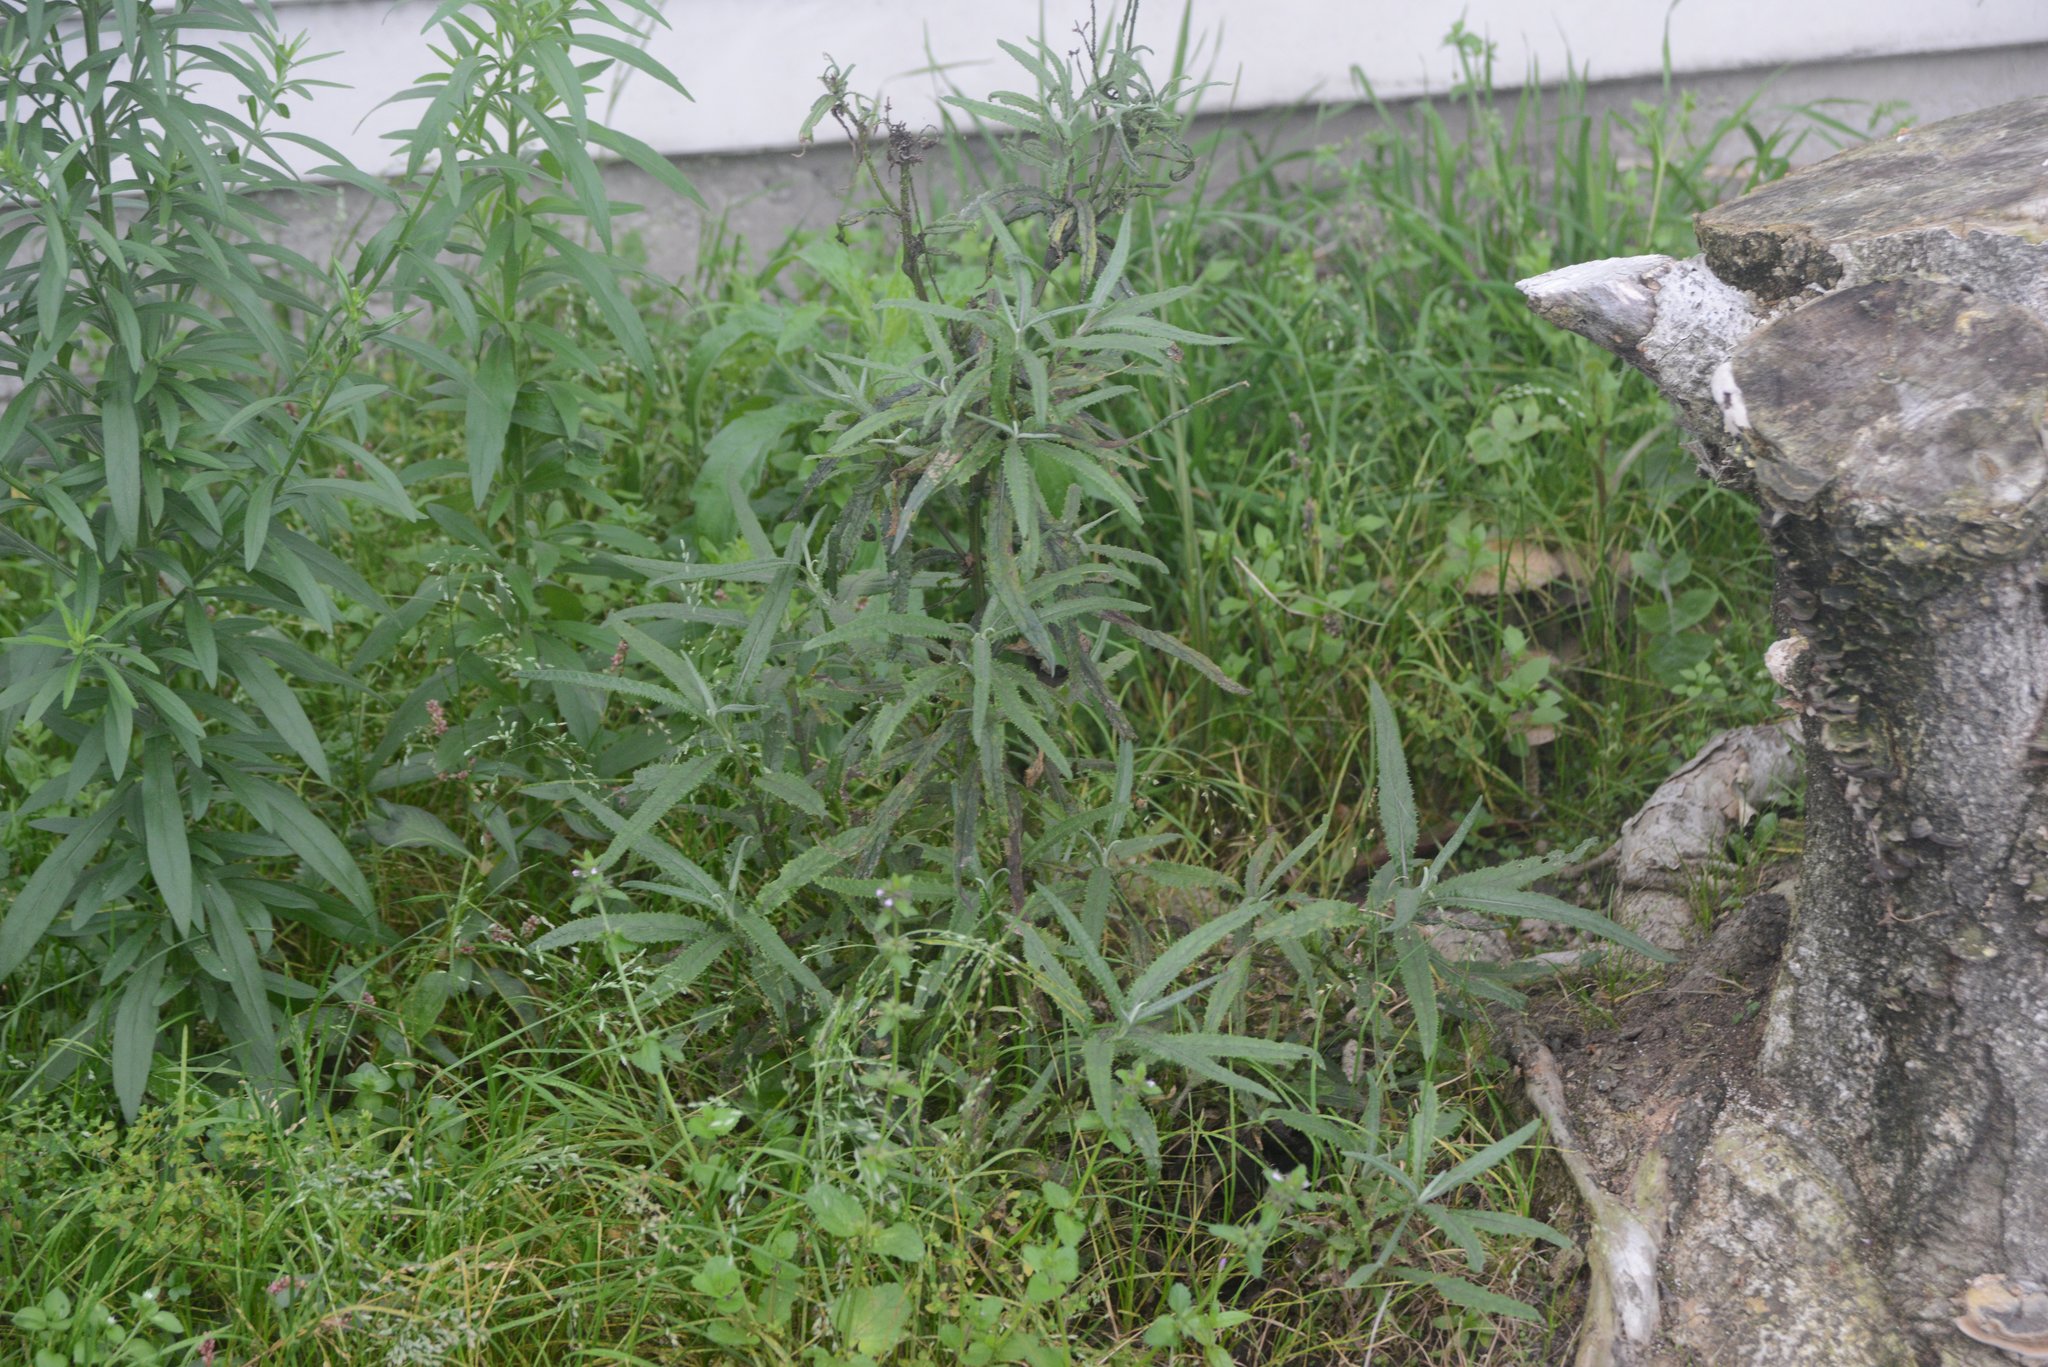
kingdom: Plantae
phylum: Tracheophyta
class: Magnoliopsida
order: Asterales
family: Asteraceae
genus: Senecio
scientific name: Senecio minimus
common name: Toothed fireweed
